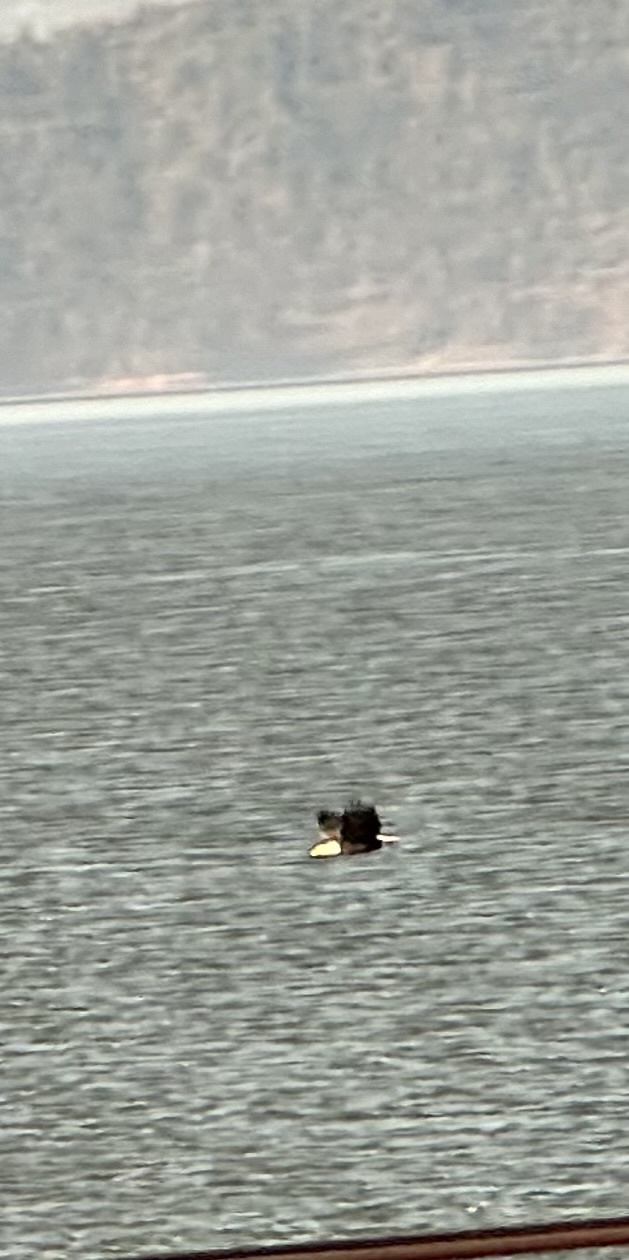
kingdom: Animalia
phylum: Chordata
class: Aves
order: Accipitriformes
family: Accipitridae
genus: Haliaeetus
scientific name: Haliaeetus leucocephalus
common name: Bald eagle
